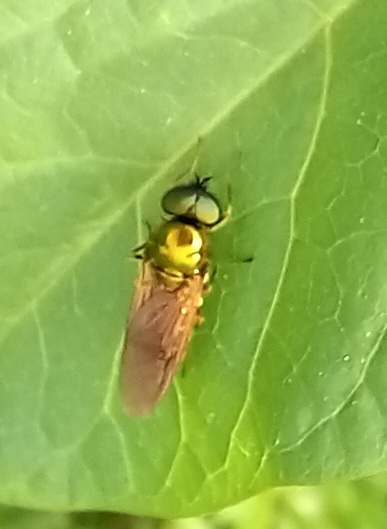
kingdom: Animalia
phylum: Arthropoda
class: Insecta
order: Diptera
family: Stratiomyidae
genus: Chloromyia
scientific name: Chloromyia formosa
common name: Soldier fly
